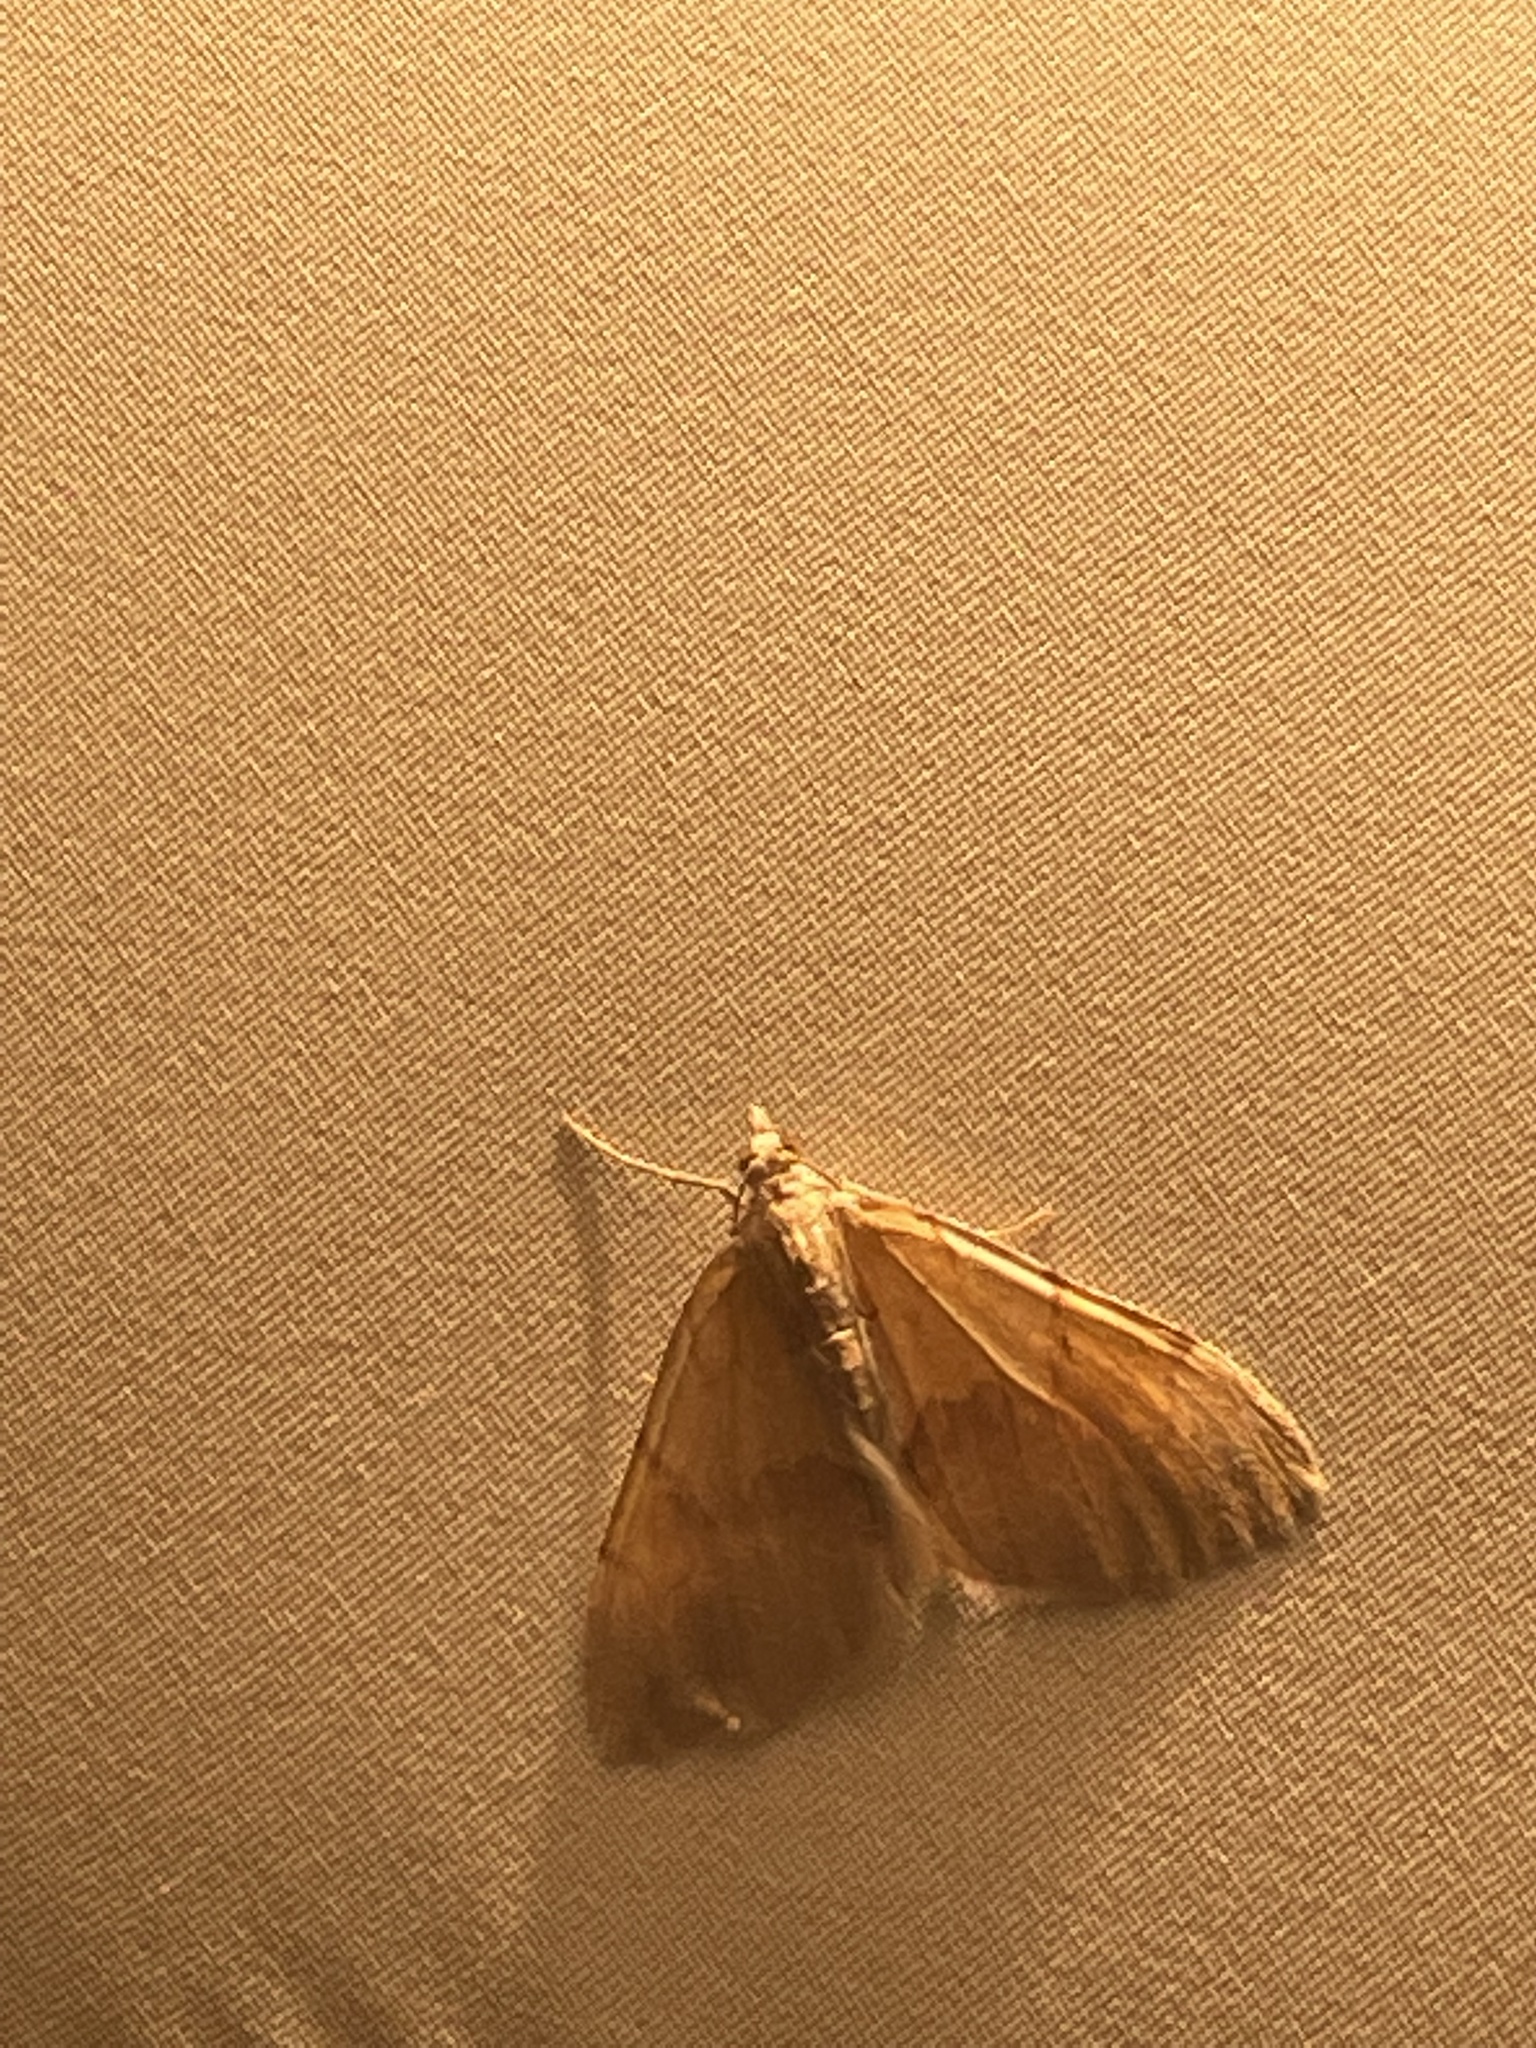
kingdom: Animalia
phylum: Arthropoda
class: Insecta
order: Lepidoptera
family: Geometridae
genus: Pennithera
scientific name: Pennithera firmata
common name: Pine carpet
